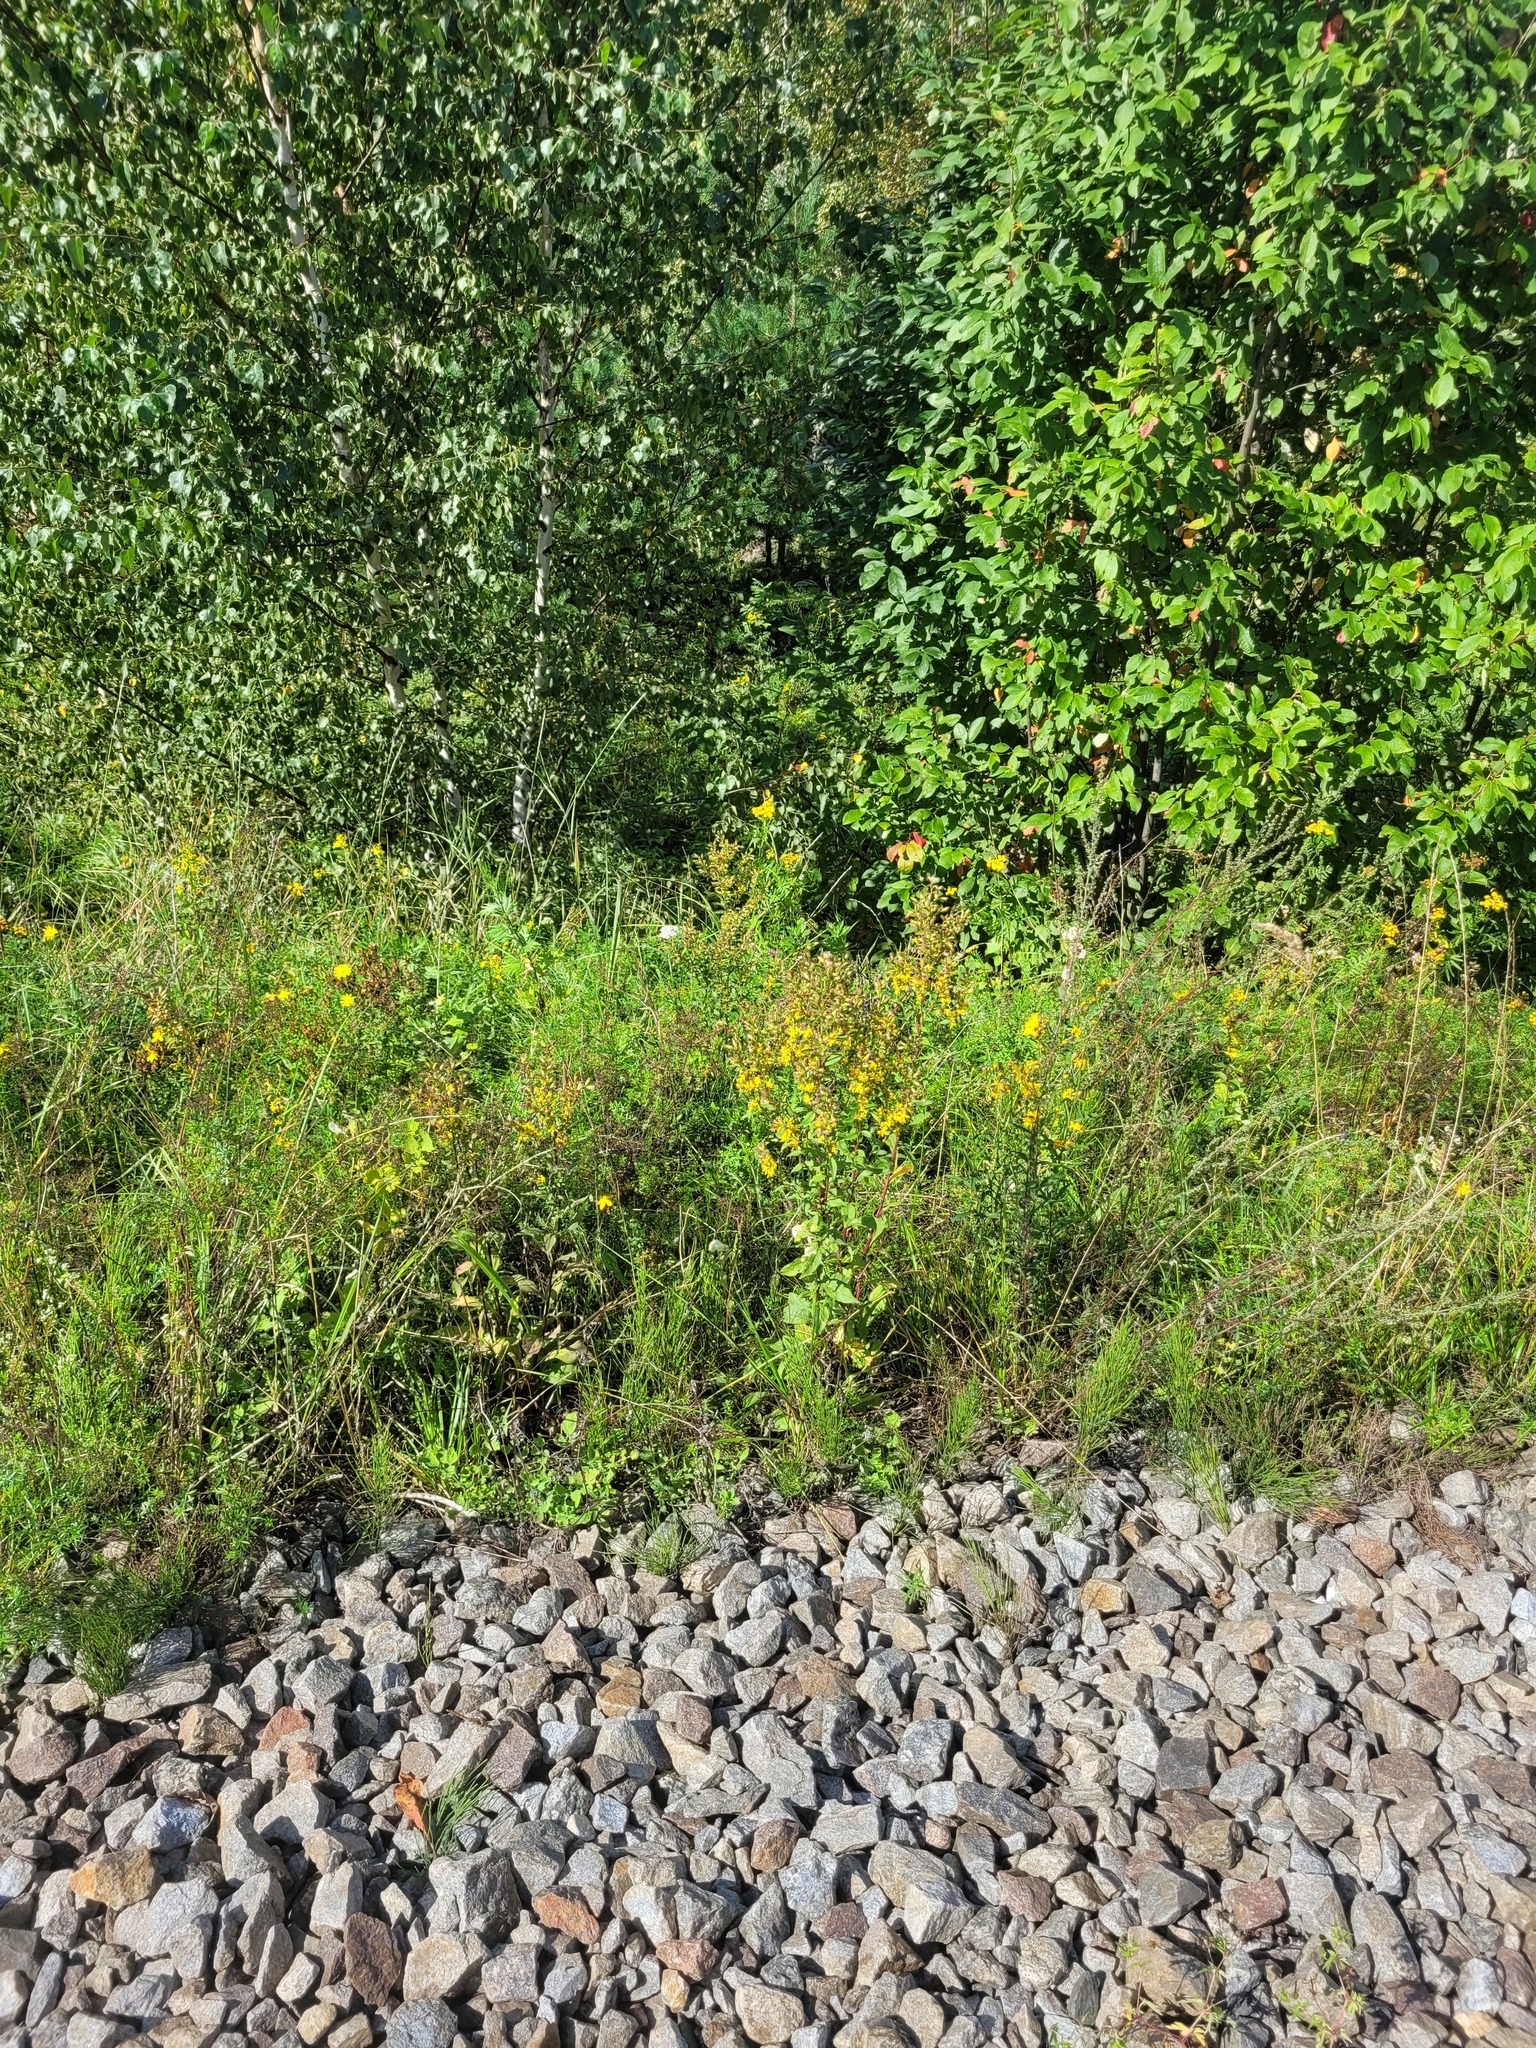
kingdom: Plantae
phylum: Tracheophyta
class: Magnoliopsida
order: Asterales
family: Asteraceae
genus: Solidago
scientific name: Solidago virgaurea
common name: Goldenrod
